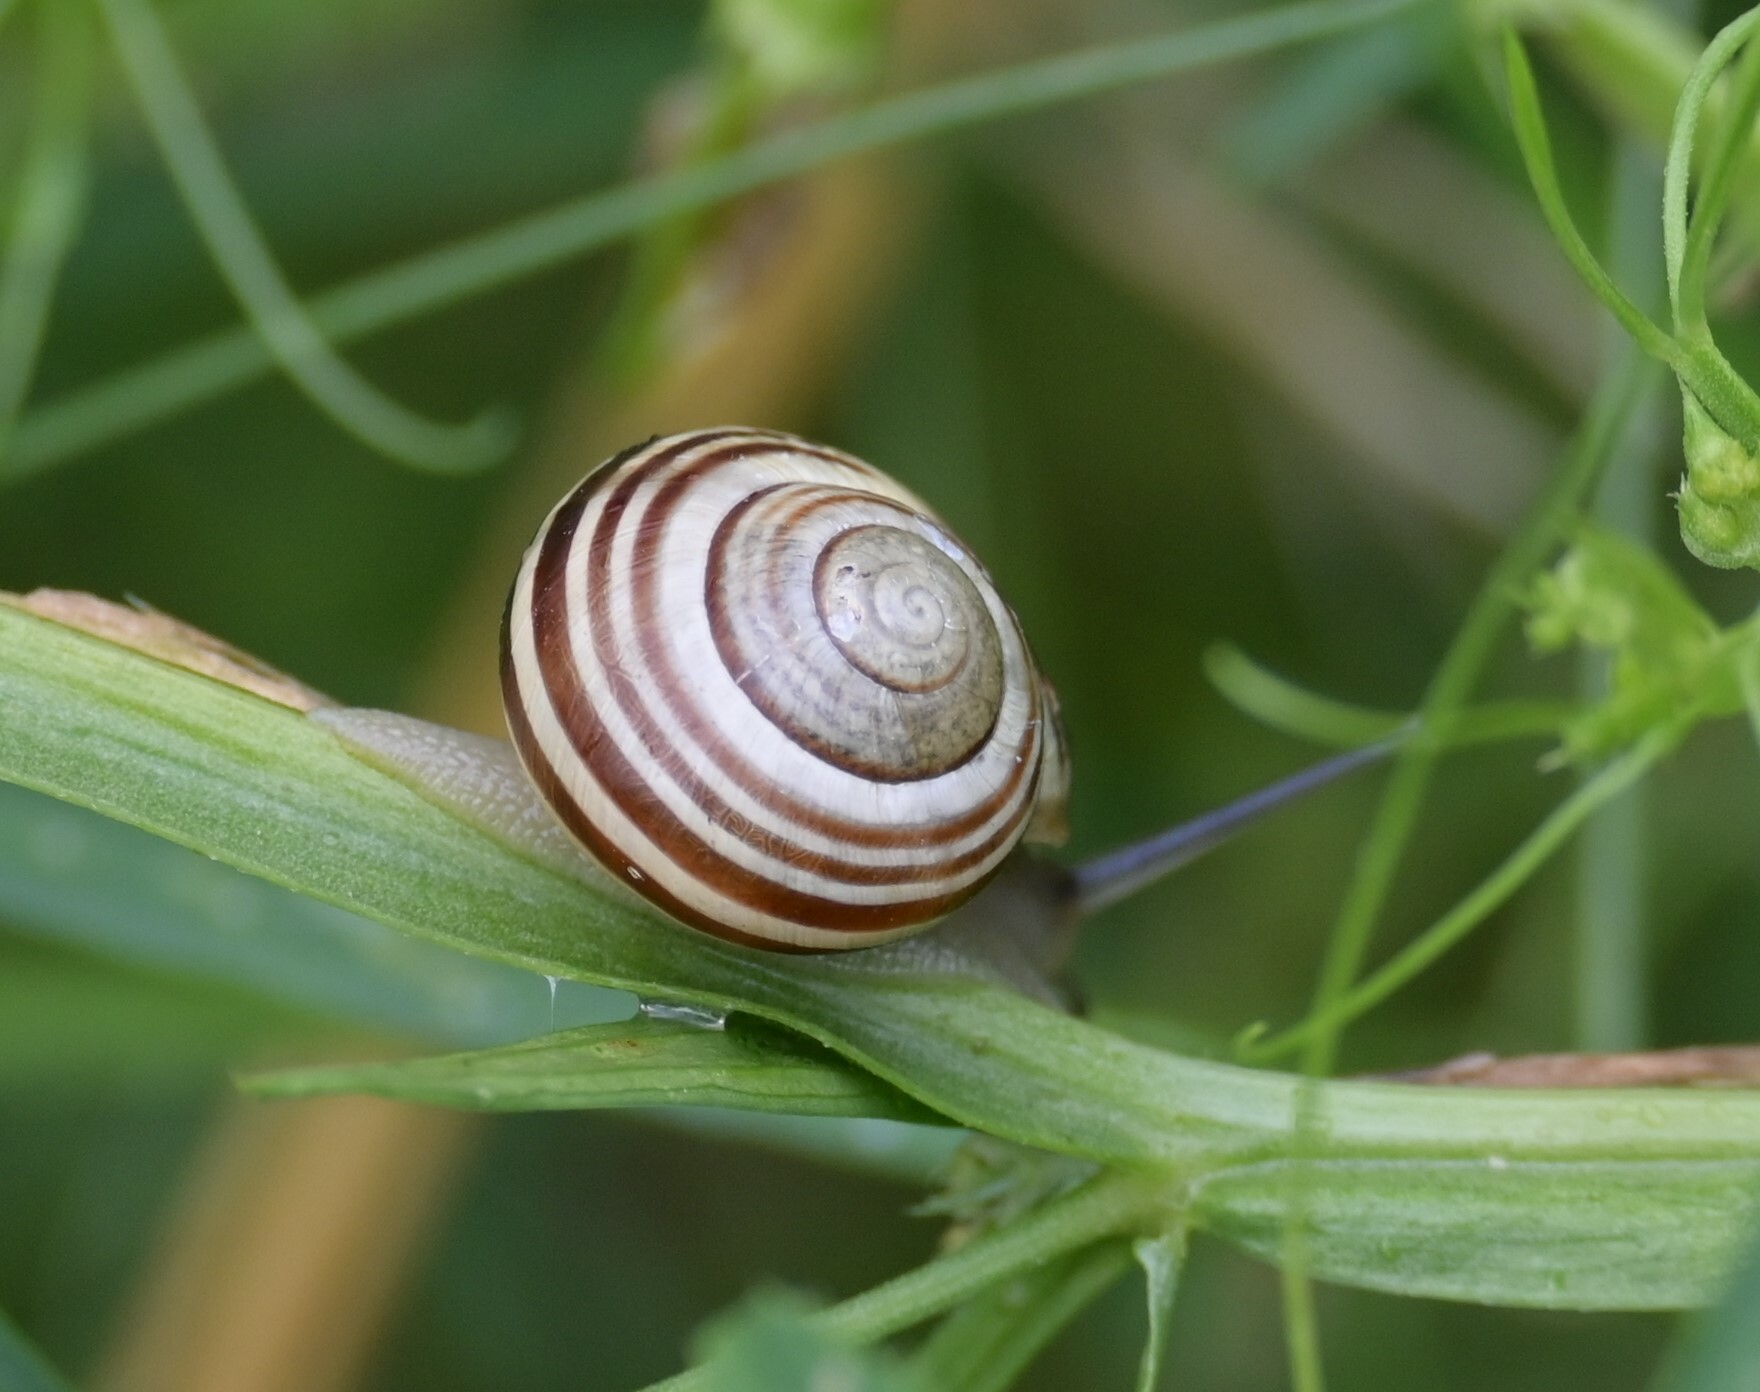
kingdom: Animalia
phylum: Mollusca
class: Gastropoda
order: Stylommatophora
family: Helicidae
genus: Cepaea
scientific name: Cepaea hortensis
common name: White-lip gardensnail
